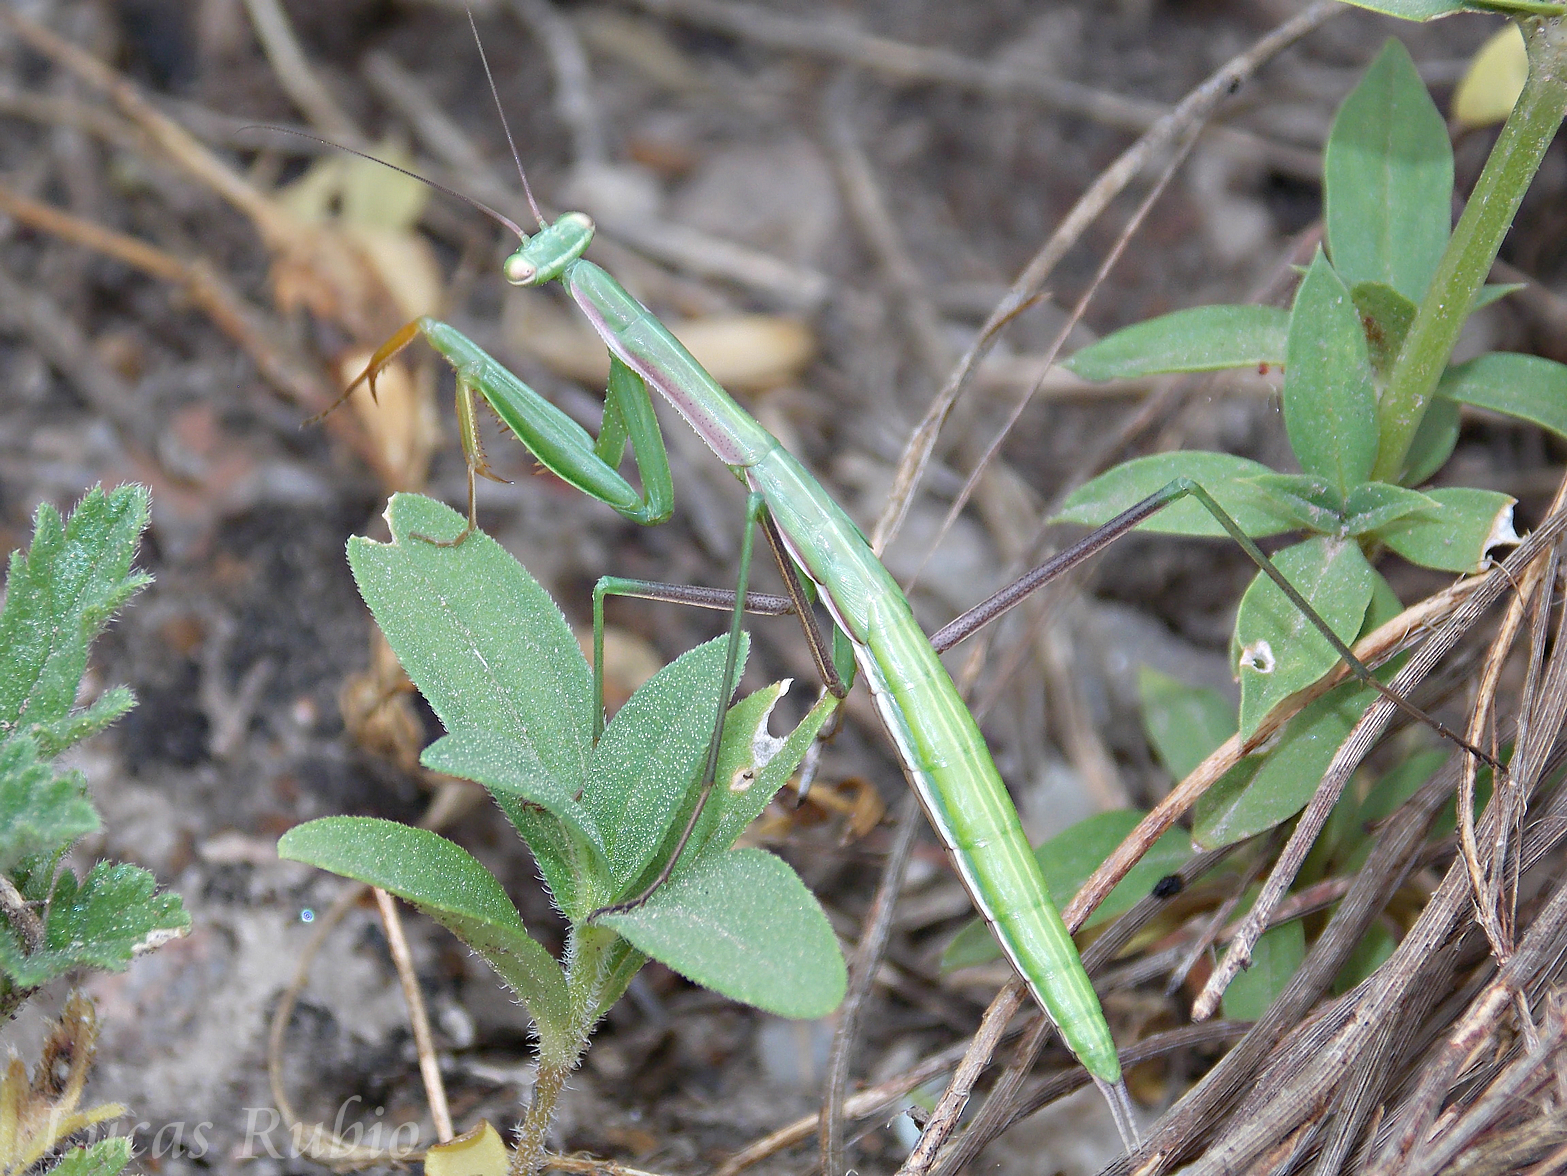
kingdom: Animalia
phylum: Arthropoda
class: Insecta
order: Mantodea
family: Coptopterygidae
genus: Coptopteryx
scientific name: Coptopteryx argentina
